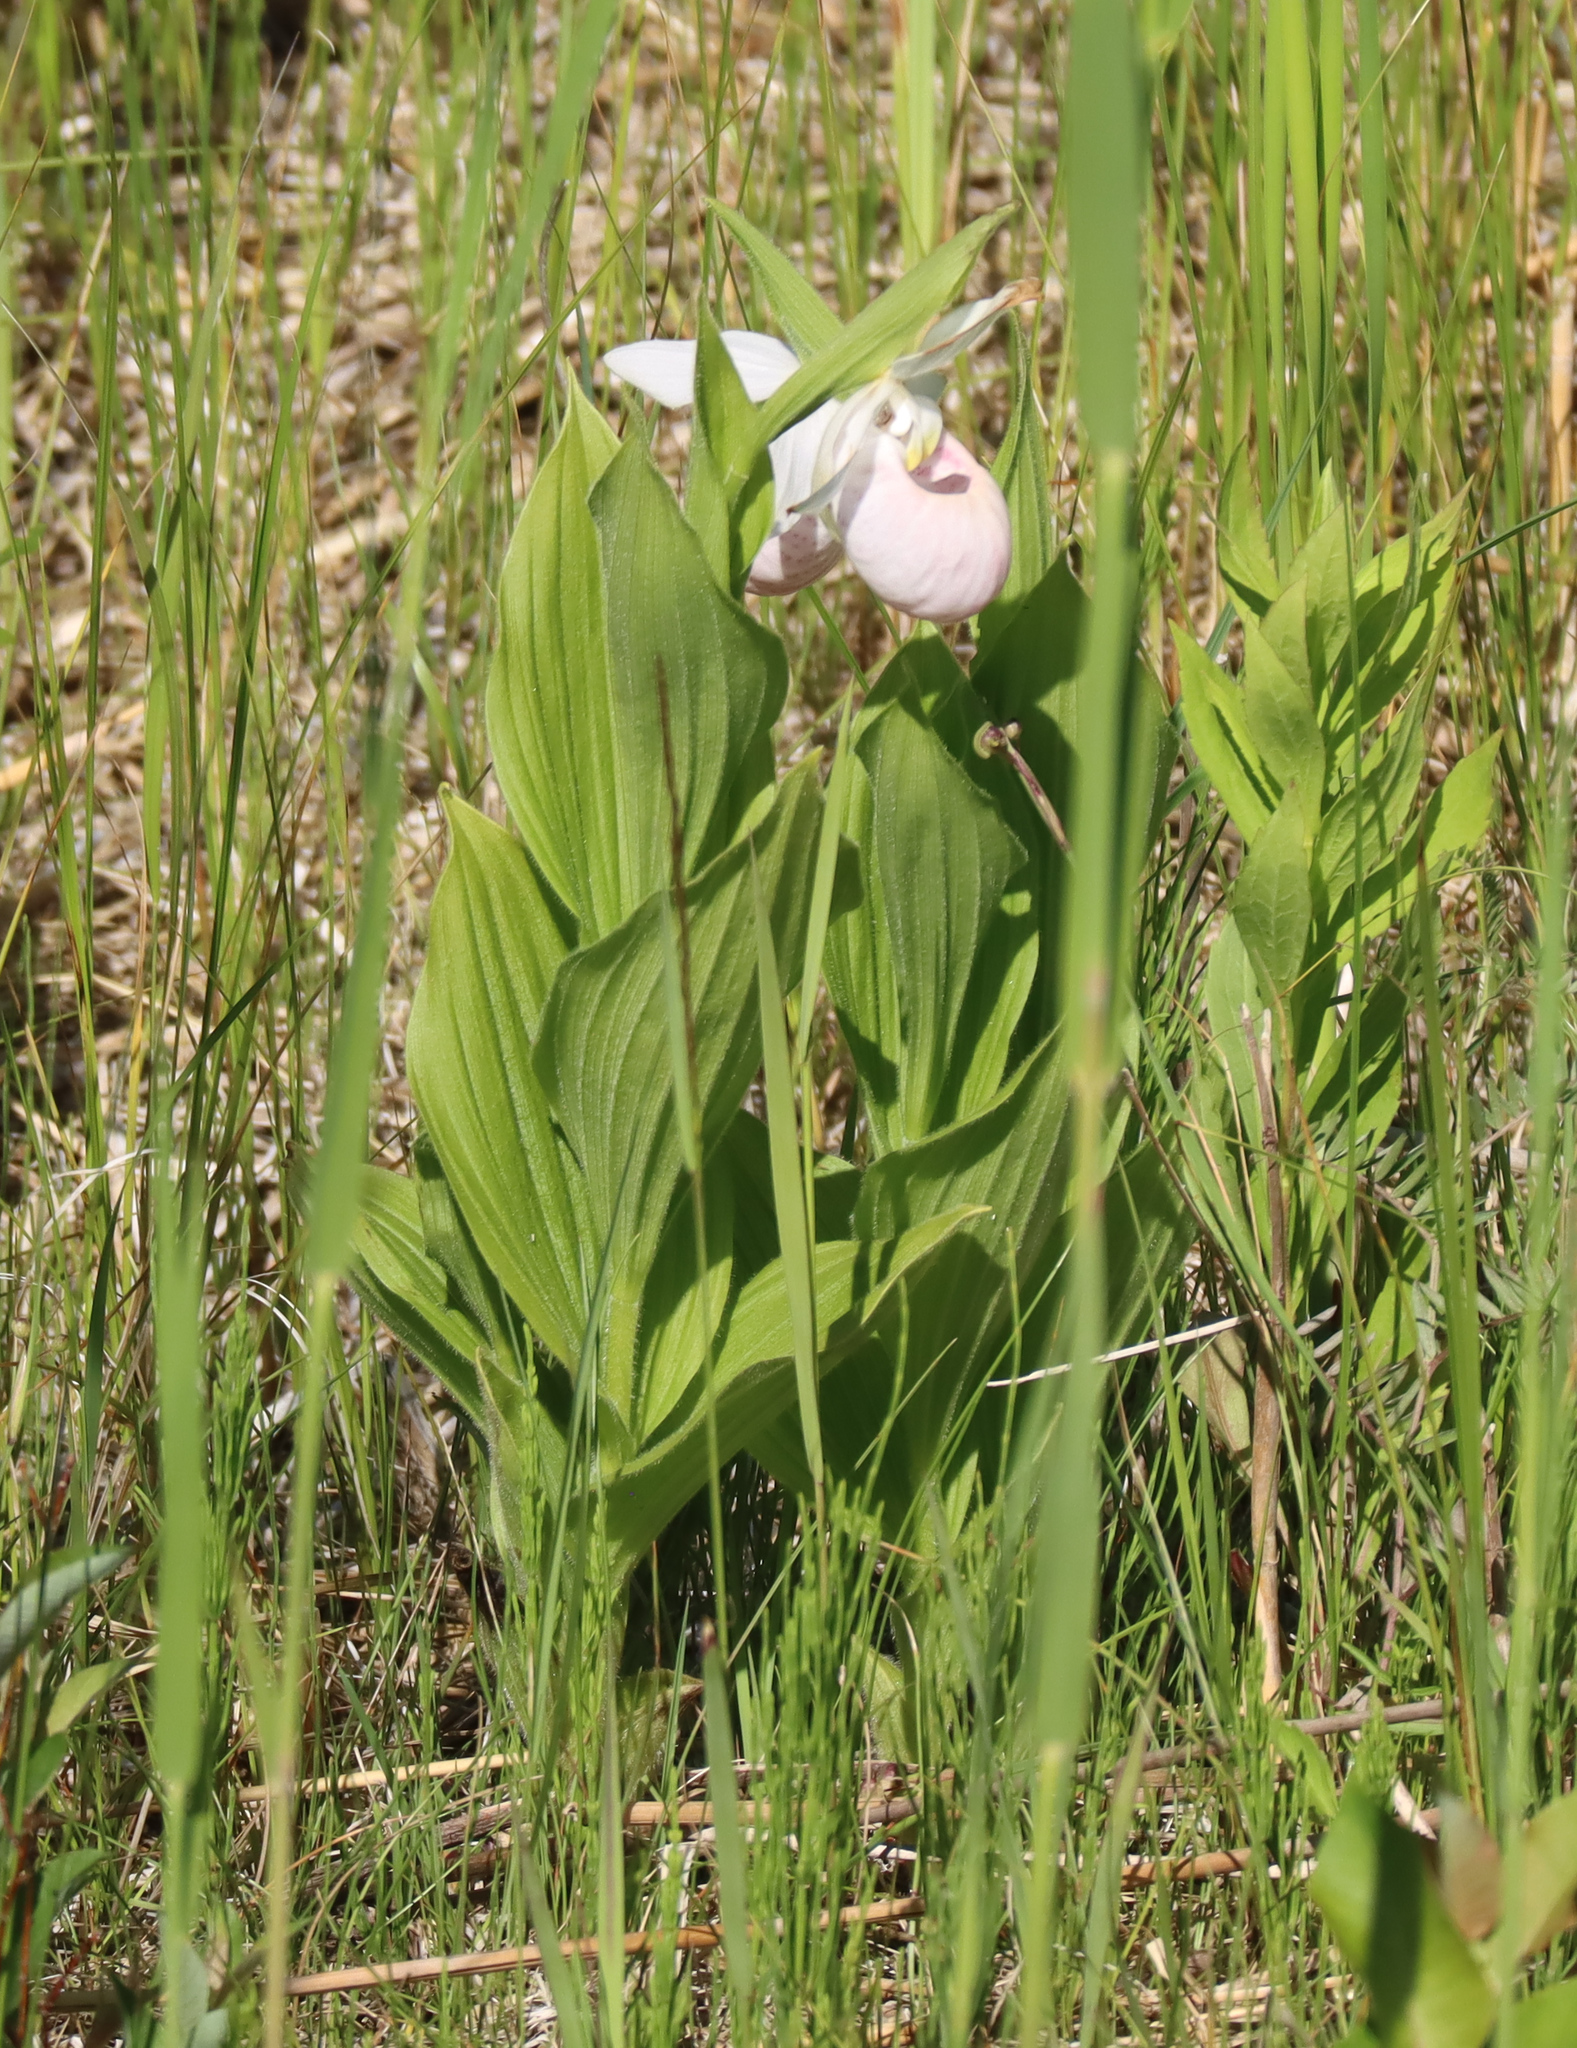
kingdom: Plantae
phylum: Tracheophyta
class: Liliopsida
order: Asparagales
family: Orchidaceae
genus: Cypripedium
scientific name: Cypripedium reginae
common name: Queen lady's-slipper
